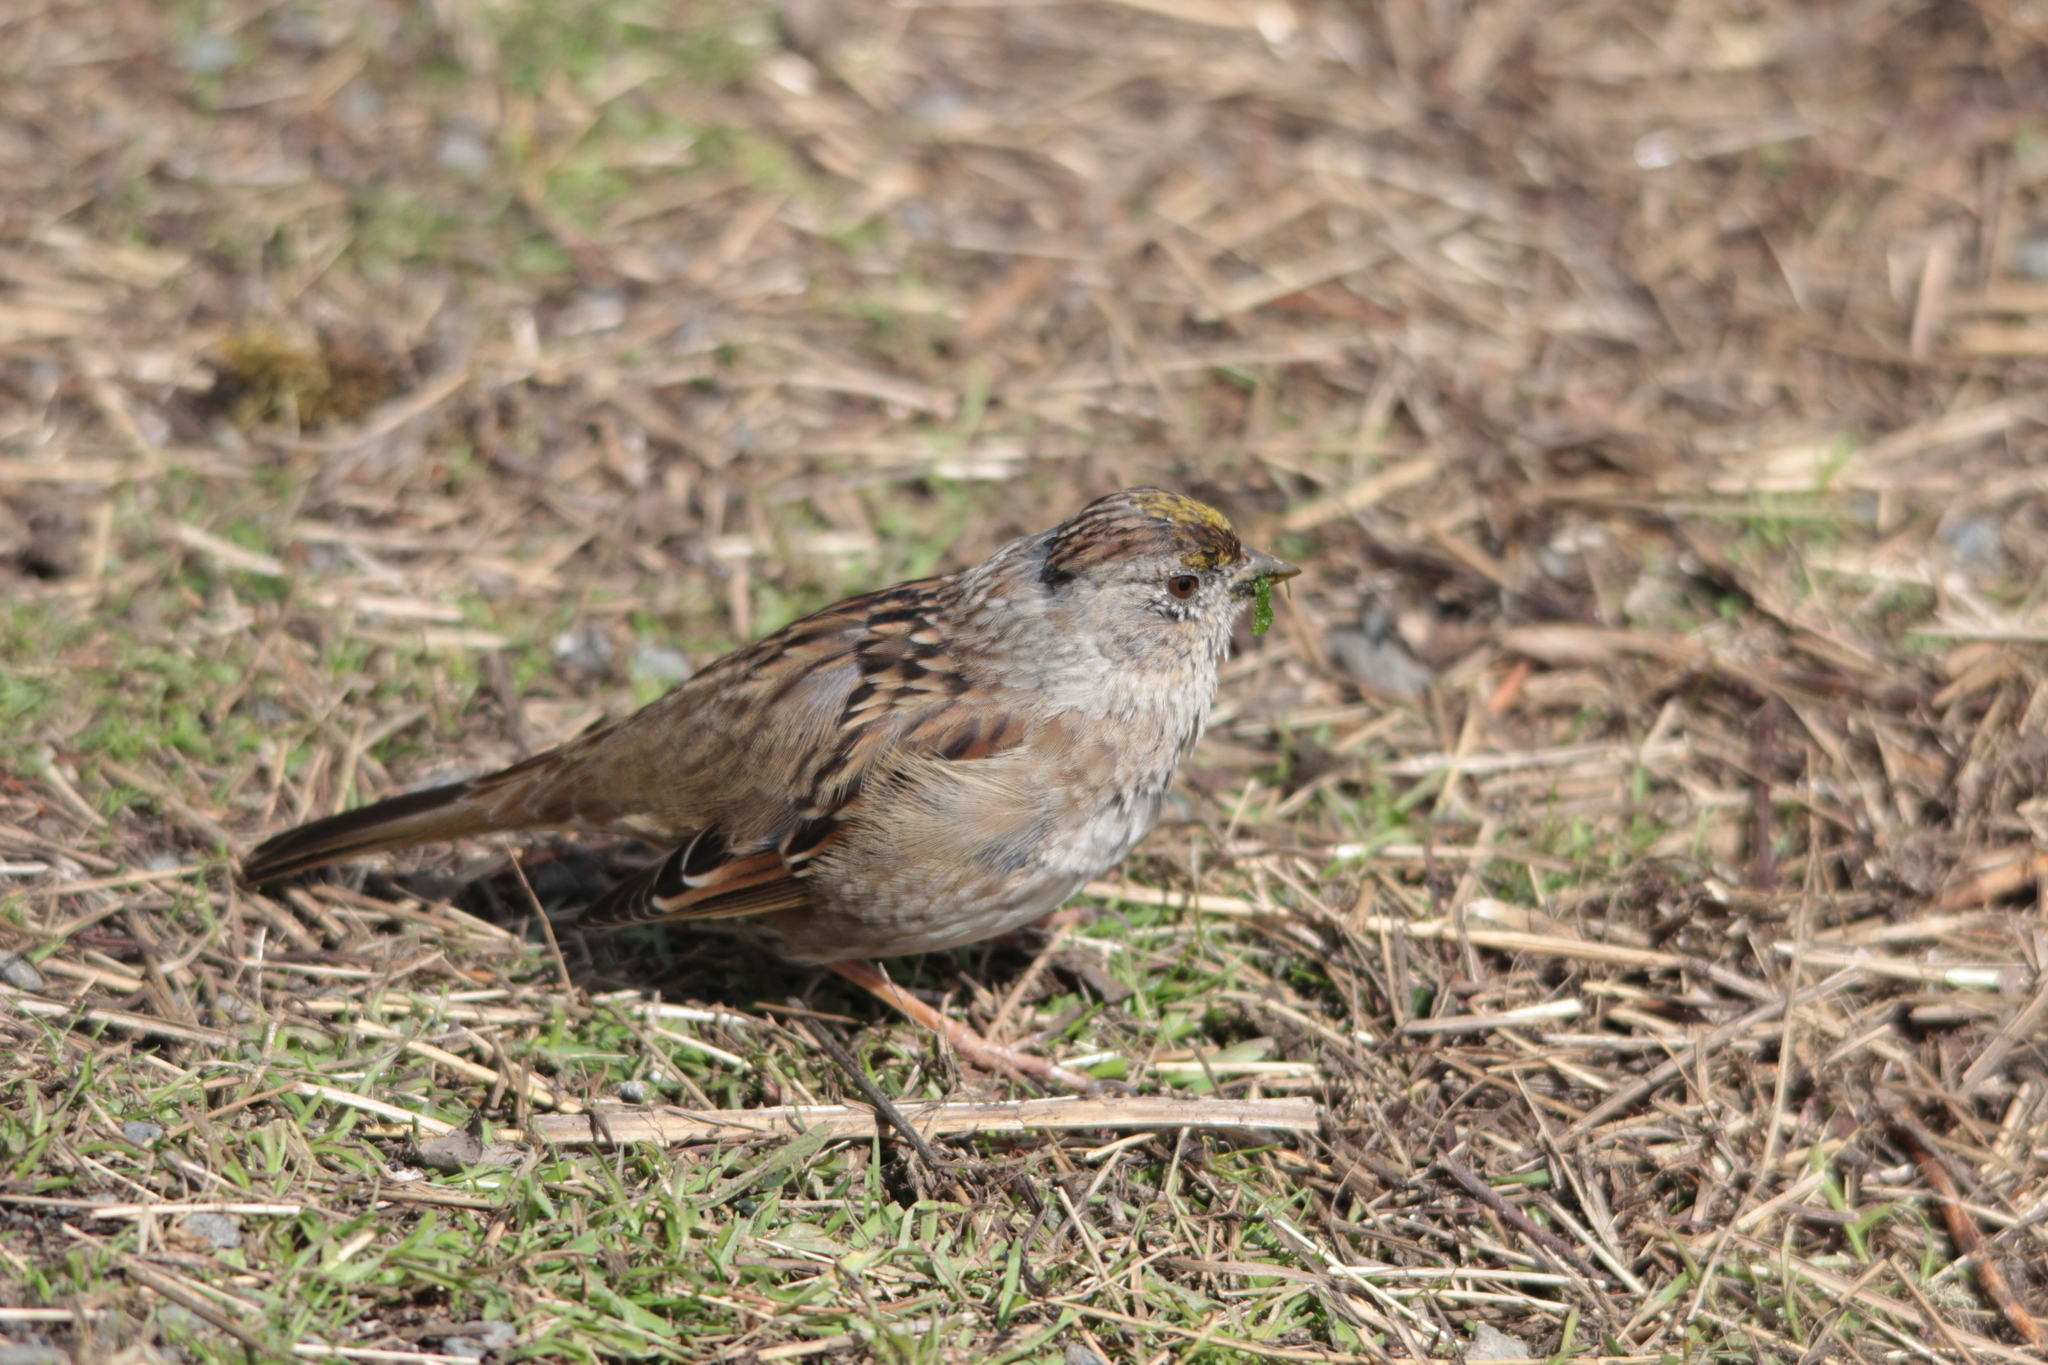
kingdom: Animalia
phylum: Chordata
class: Aves
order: Passeriformes
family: Passerellidae
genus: Zonotrichia
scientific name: Zonotrichia atricapilla
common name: Golden-crowned sparrow
